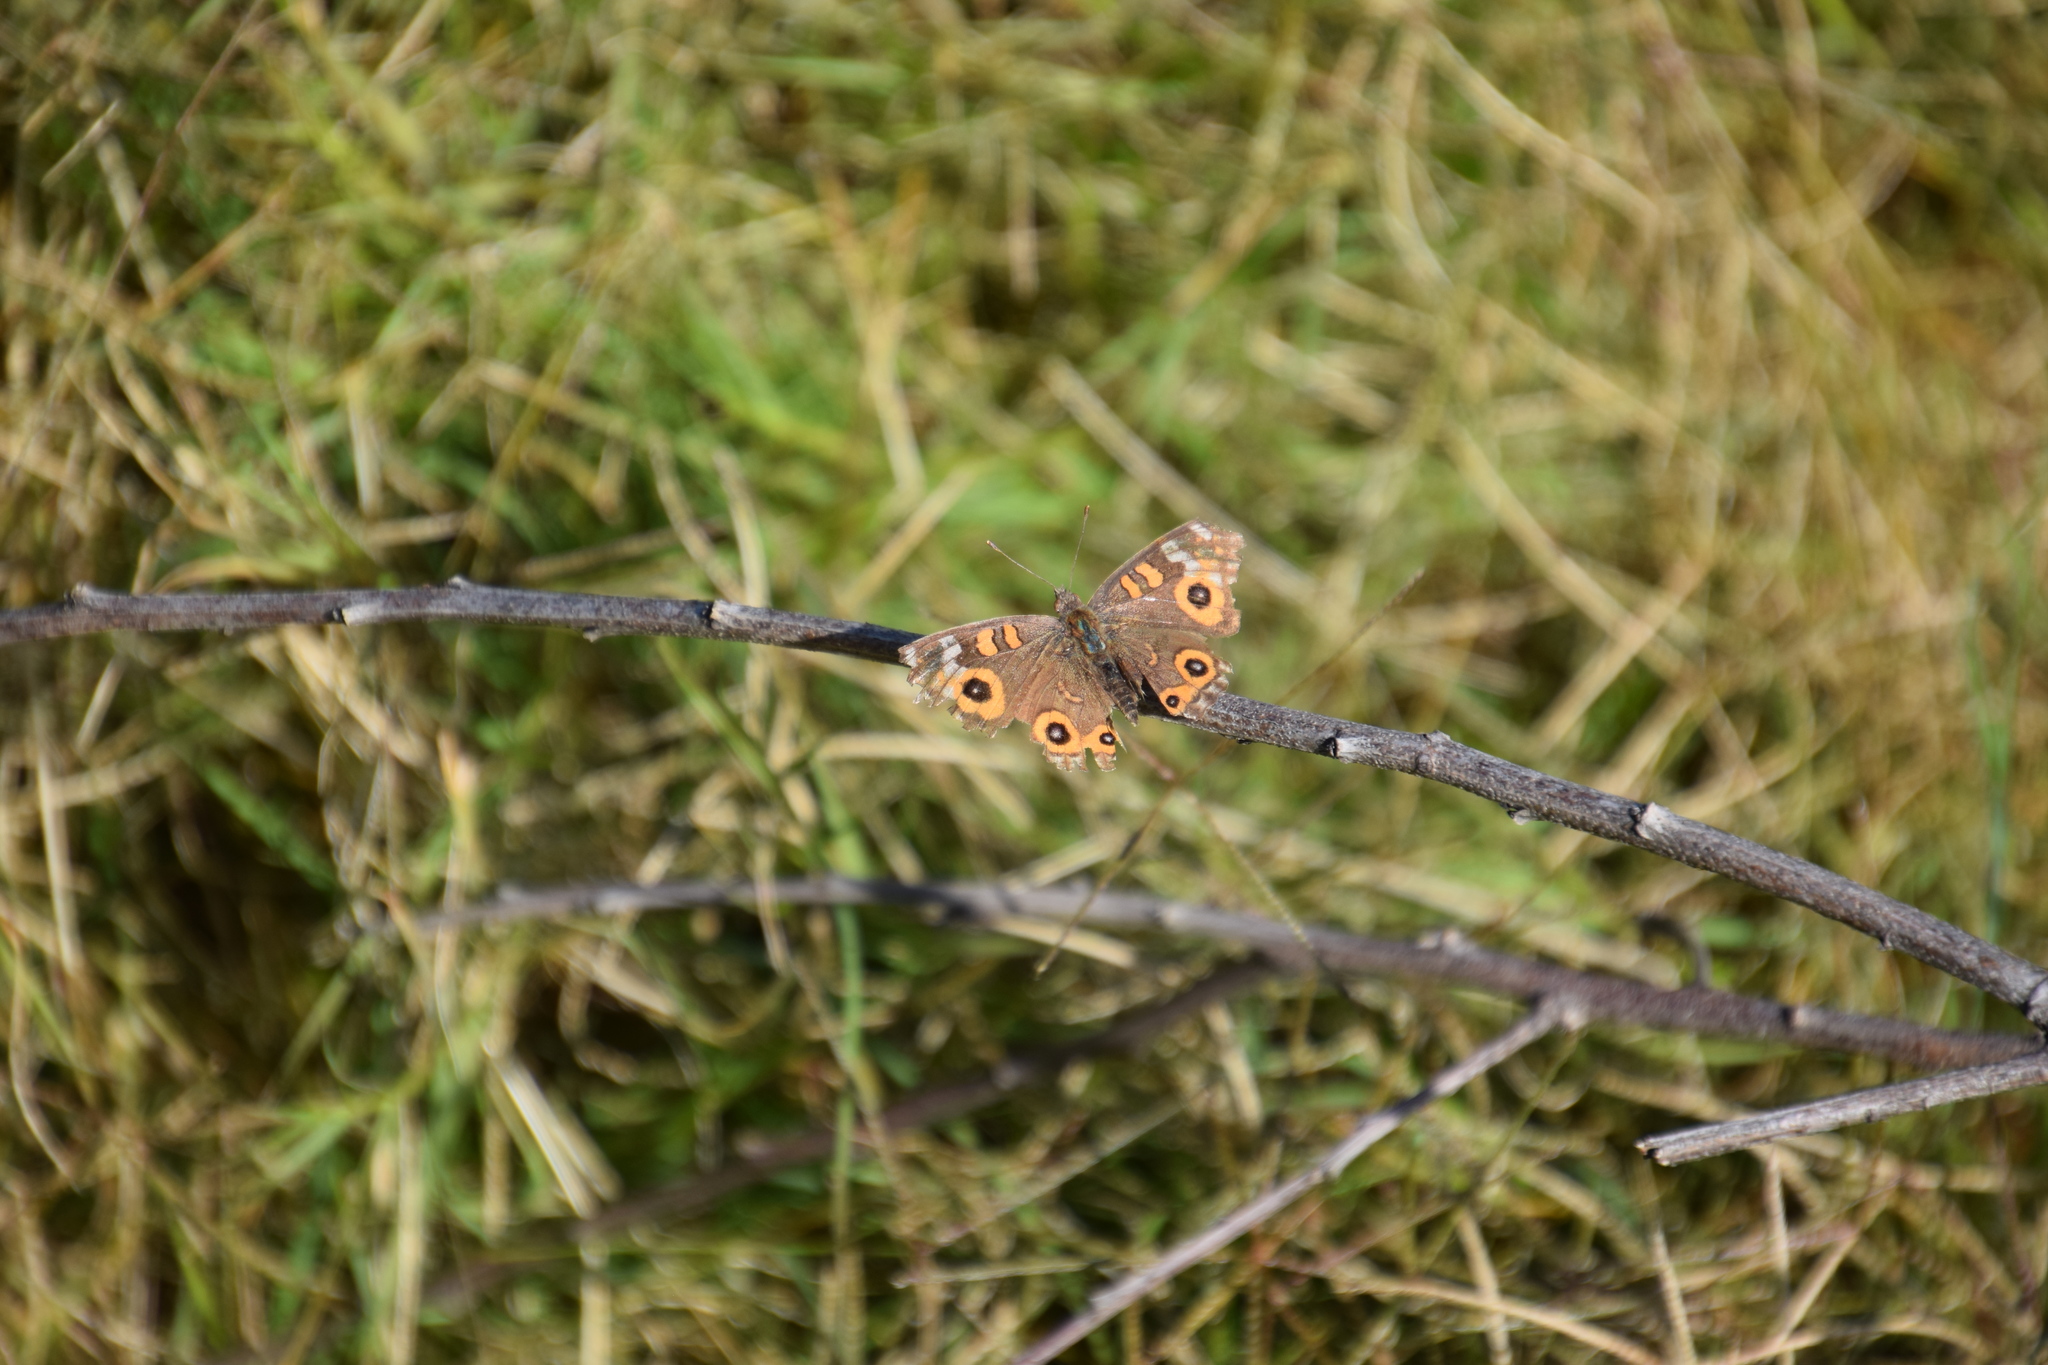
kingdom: Animalia
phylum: Arthropoda
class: Insecta
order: Lepidoptera
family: Nymphalidae
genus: Junonia
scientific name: Junonia villida
